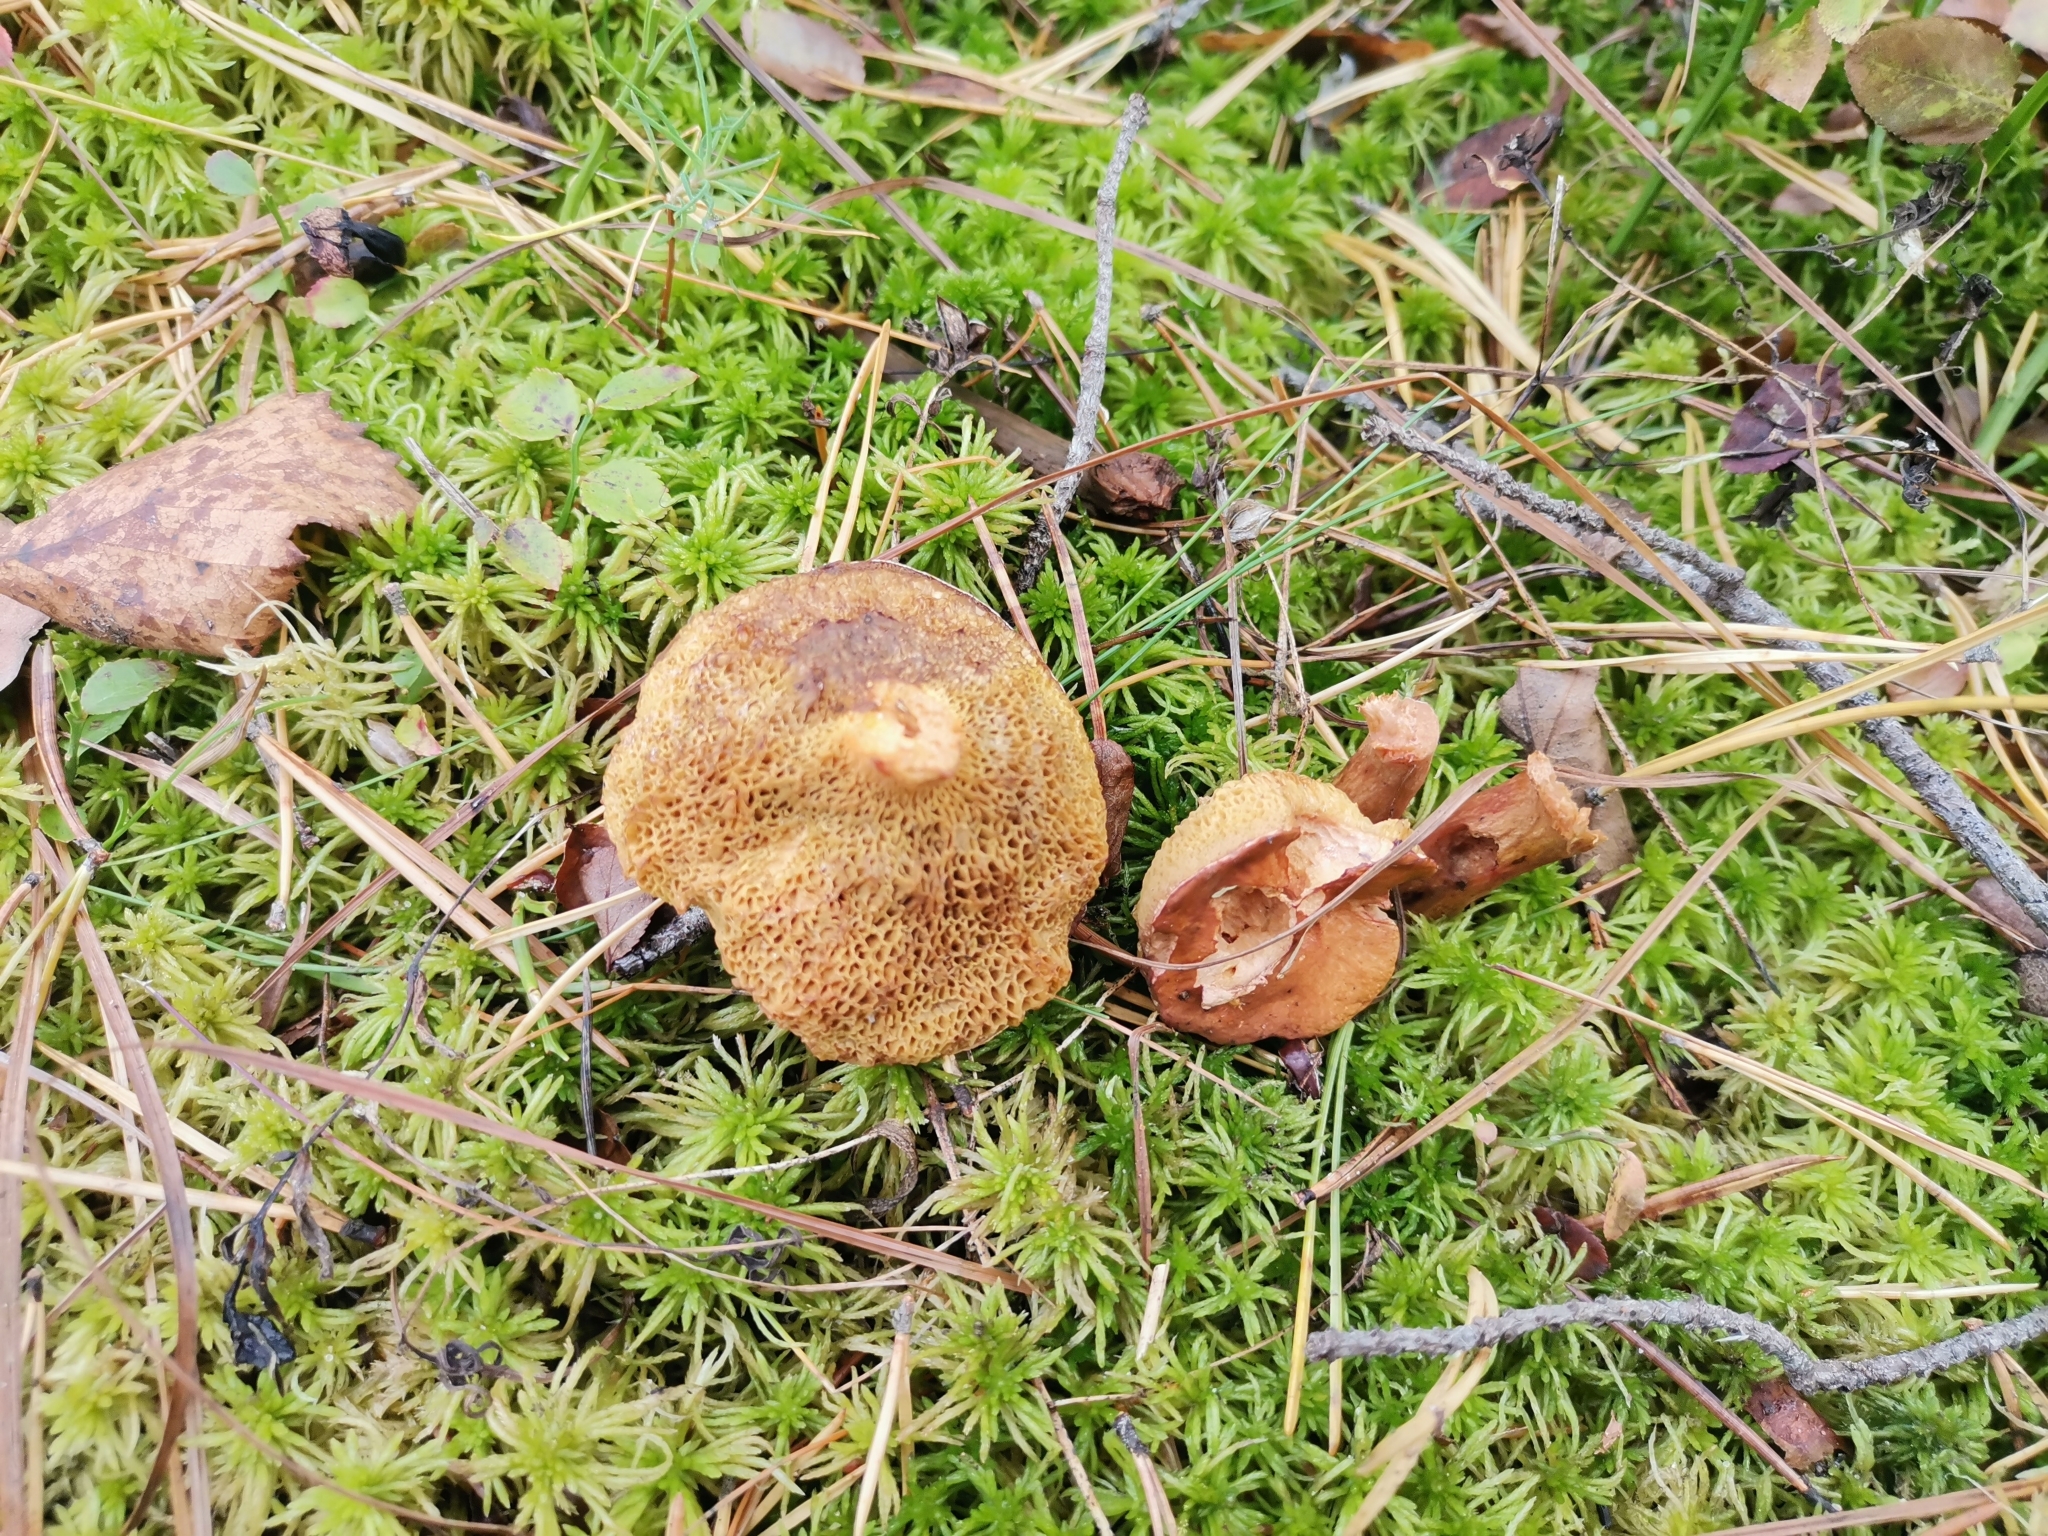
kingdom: Fungi
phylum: Basidiomycota
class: Agaricomycetes
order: Boletales
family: Suillaceae
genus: Suillus
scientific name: Suillus bovinus
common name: Bovine bolete
